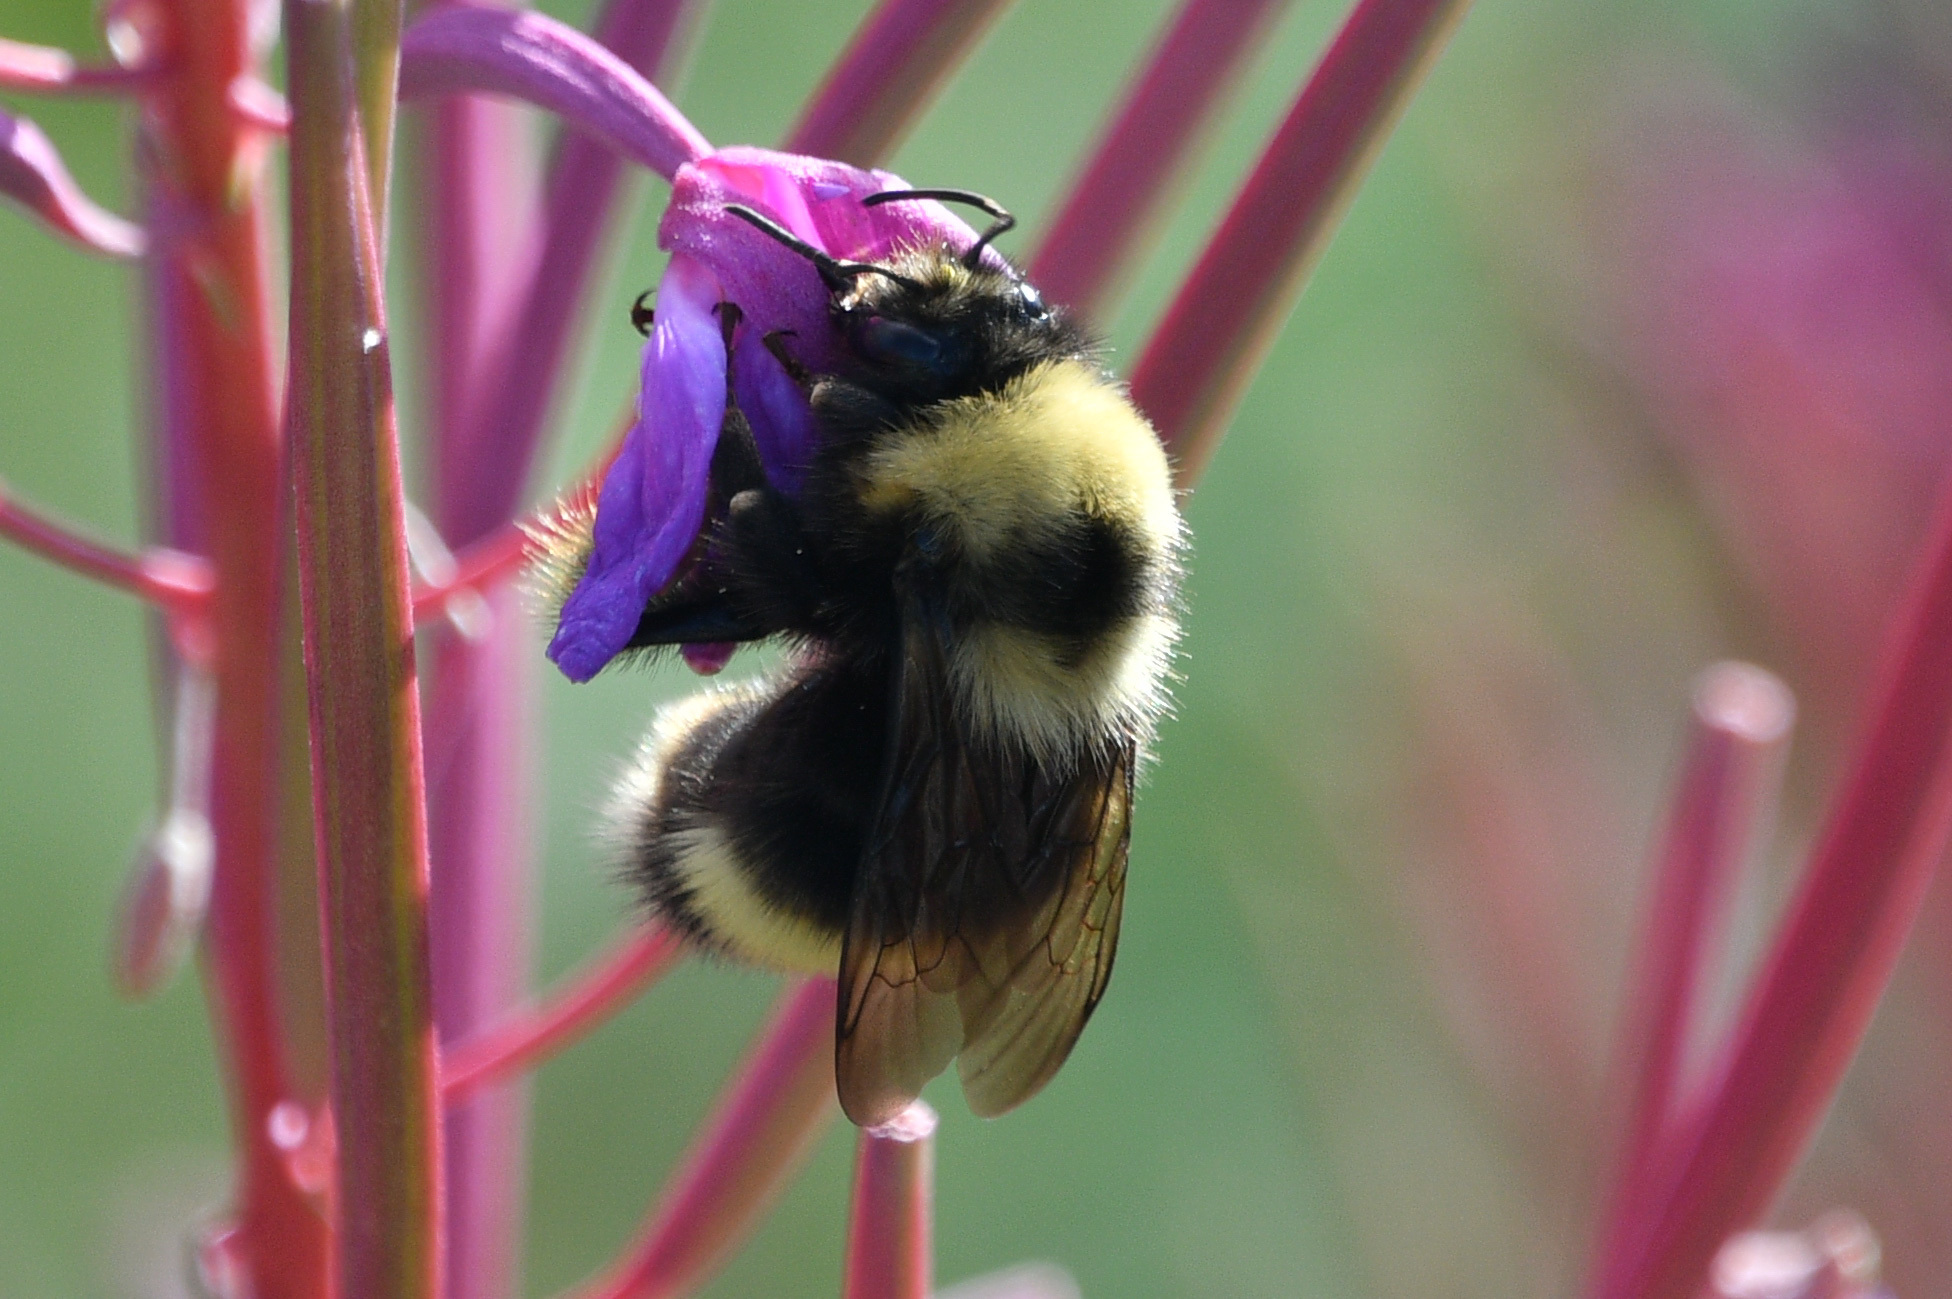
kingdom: Animalia
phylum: Arthropoda
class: Insecta
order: Hymenoptera
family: Apidae
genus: Bombus
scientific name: Bombus mckayi
